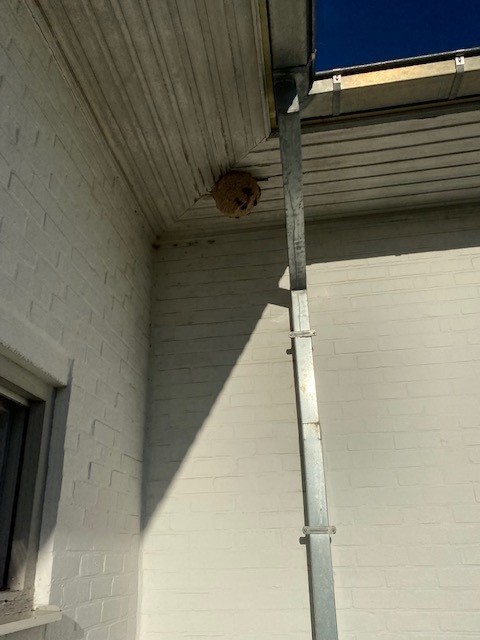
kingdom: Animalia
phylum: Arthropoda
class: Insecta
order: Hymenoptera
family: Vespidae
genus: Vespa
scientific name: Vespa velutina
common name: Asian hornet
